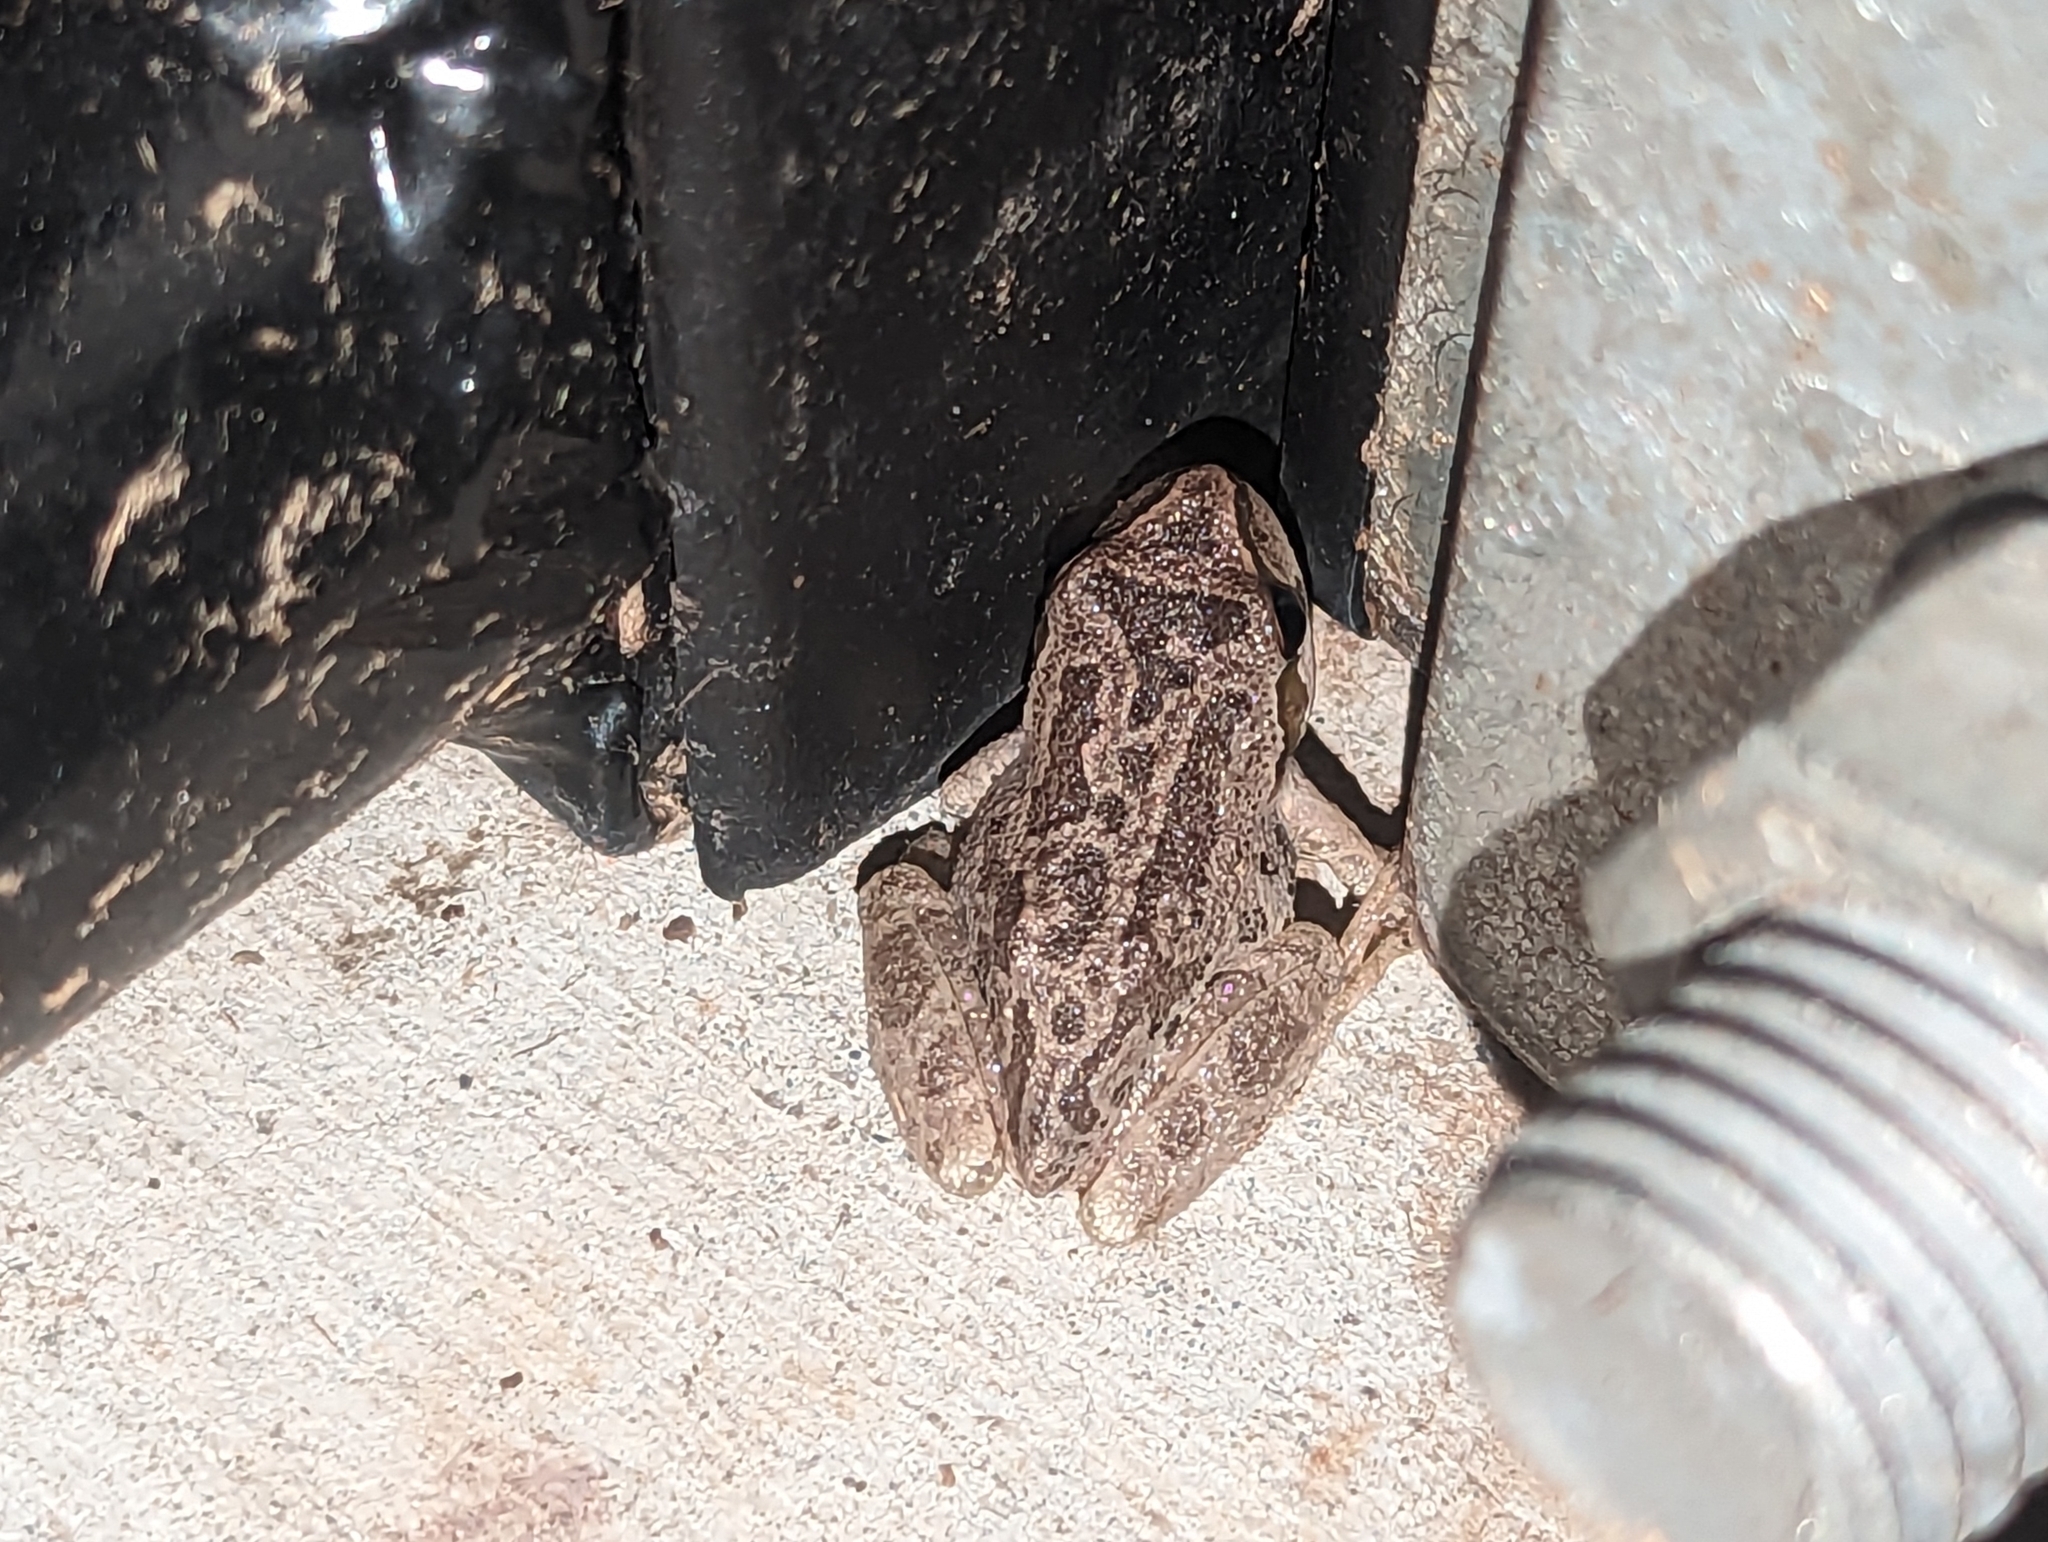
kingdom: Animalia
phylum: Chordata
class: Amphibia
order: Anura
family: Hylidae
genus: Pseudacris
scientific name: Pseudacris regilla
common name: Pacific chorus frog
